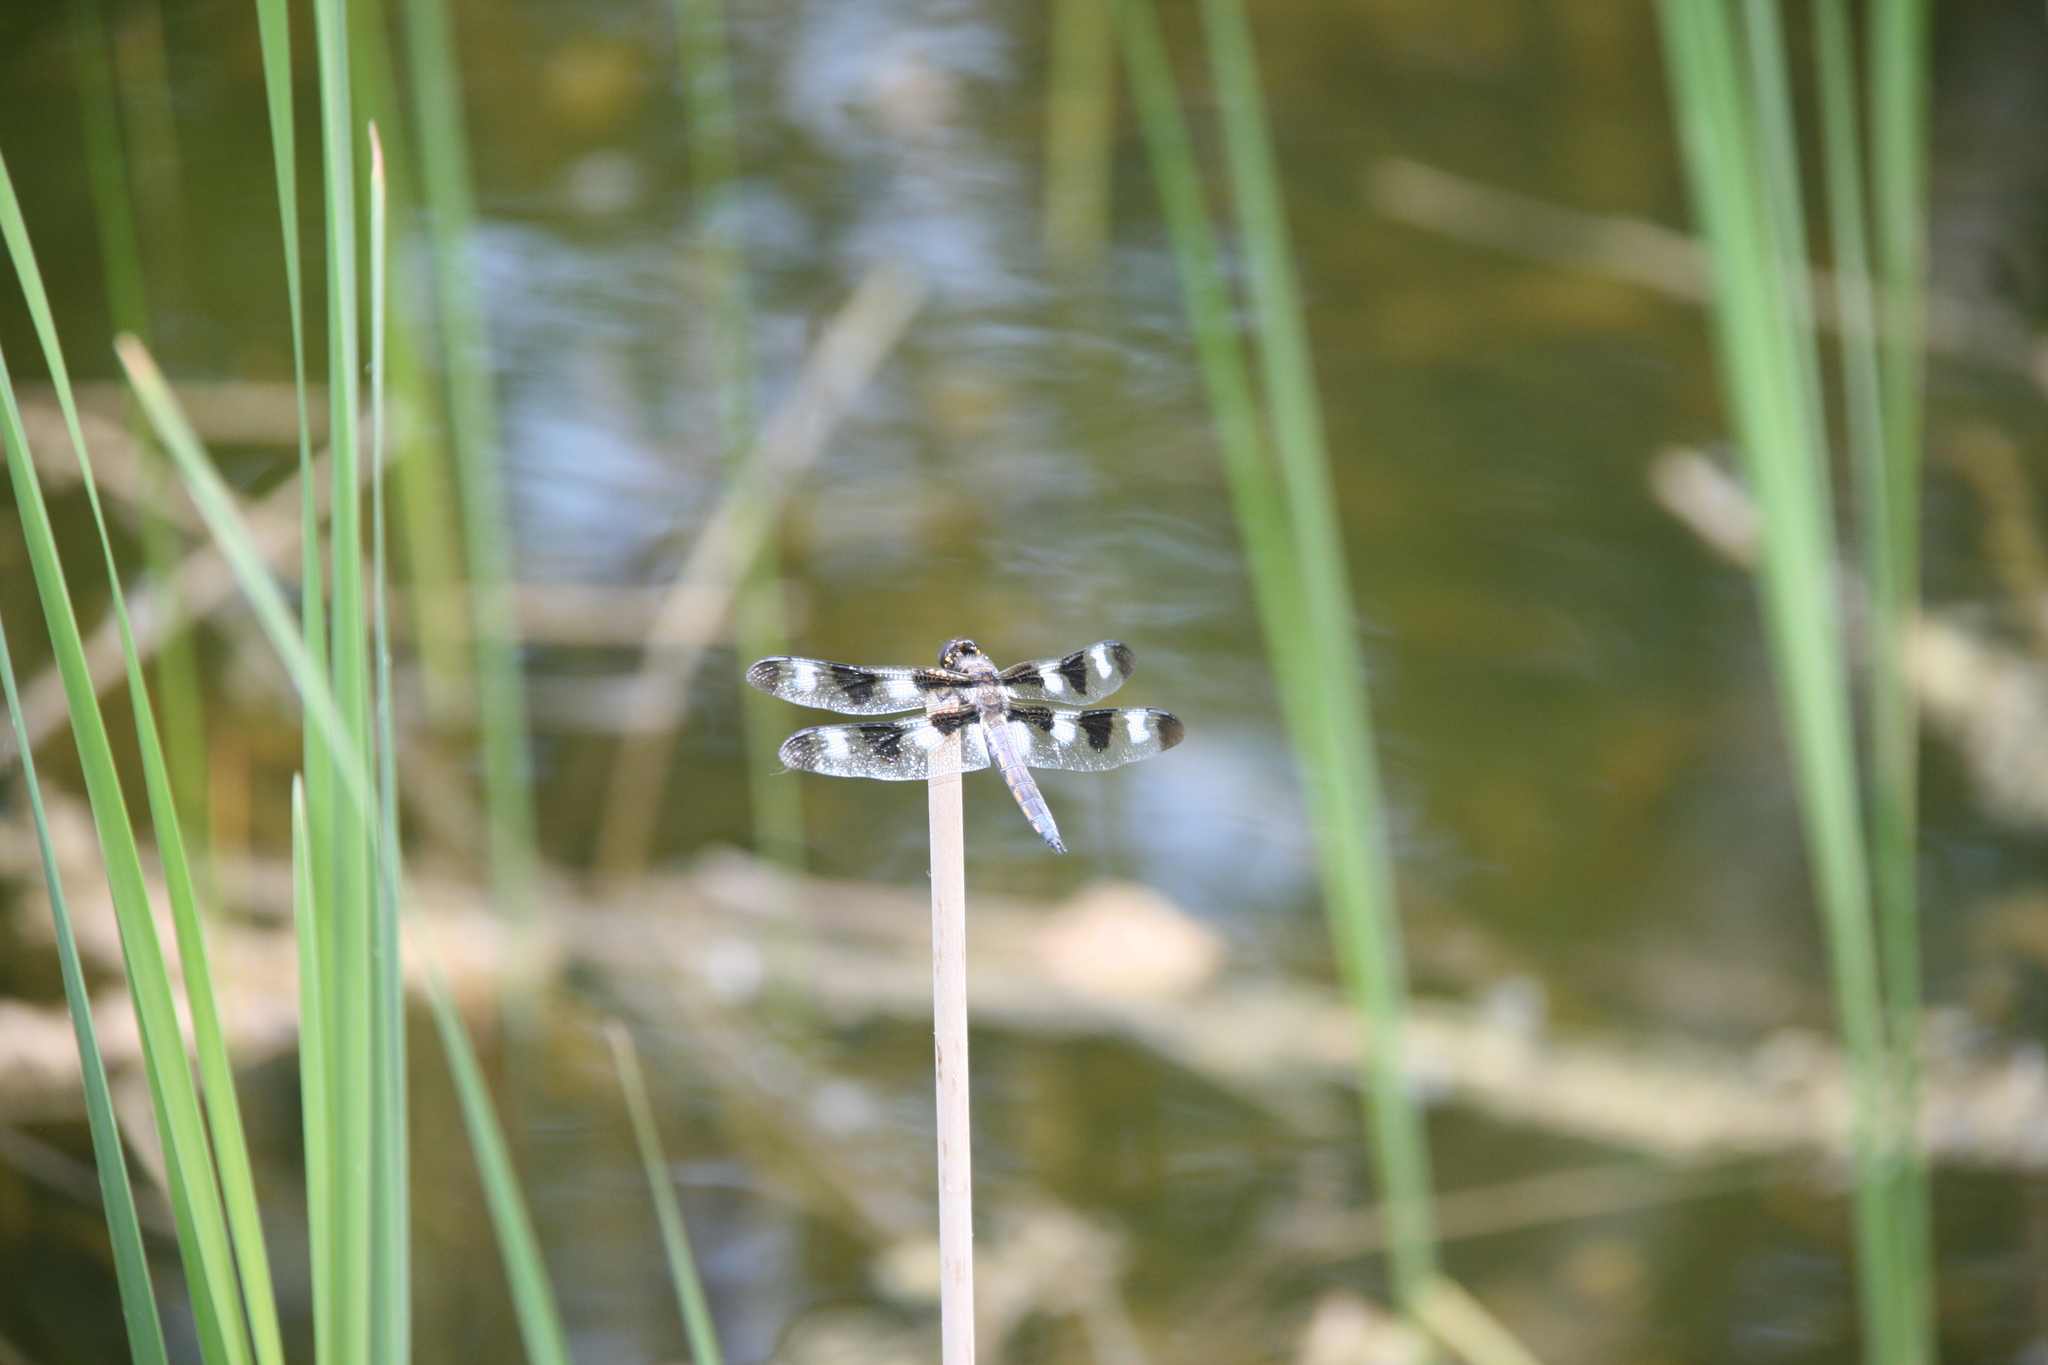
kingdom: Animalia
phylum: Arthropoda
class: Insecta
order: Odonata
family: Libellulidae
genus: Libellula
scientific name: Libellula pulchella
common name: Twelve-spotted skimmer
